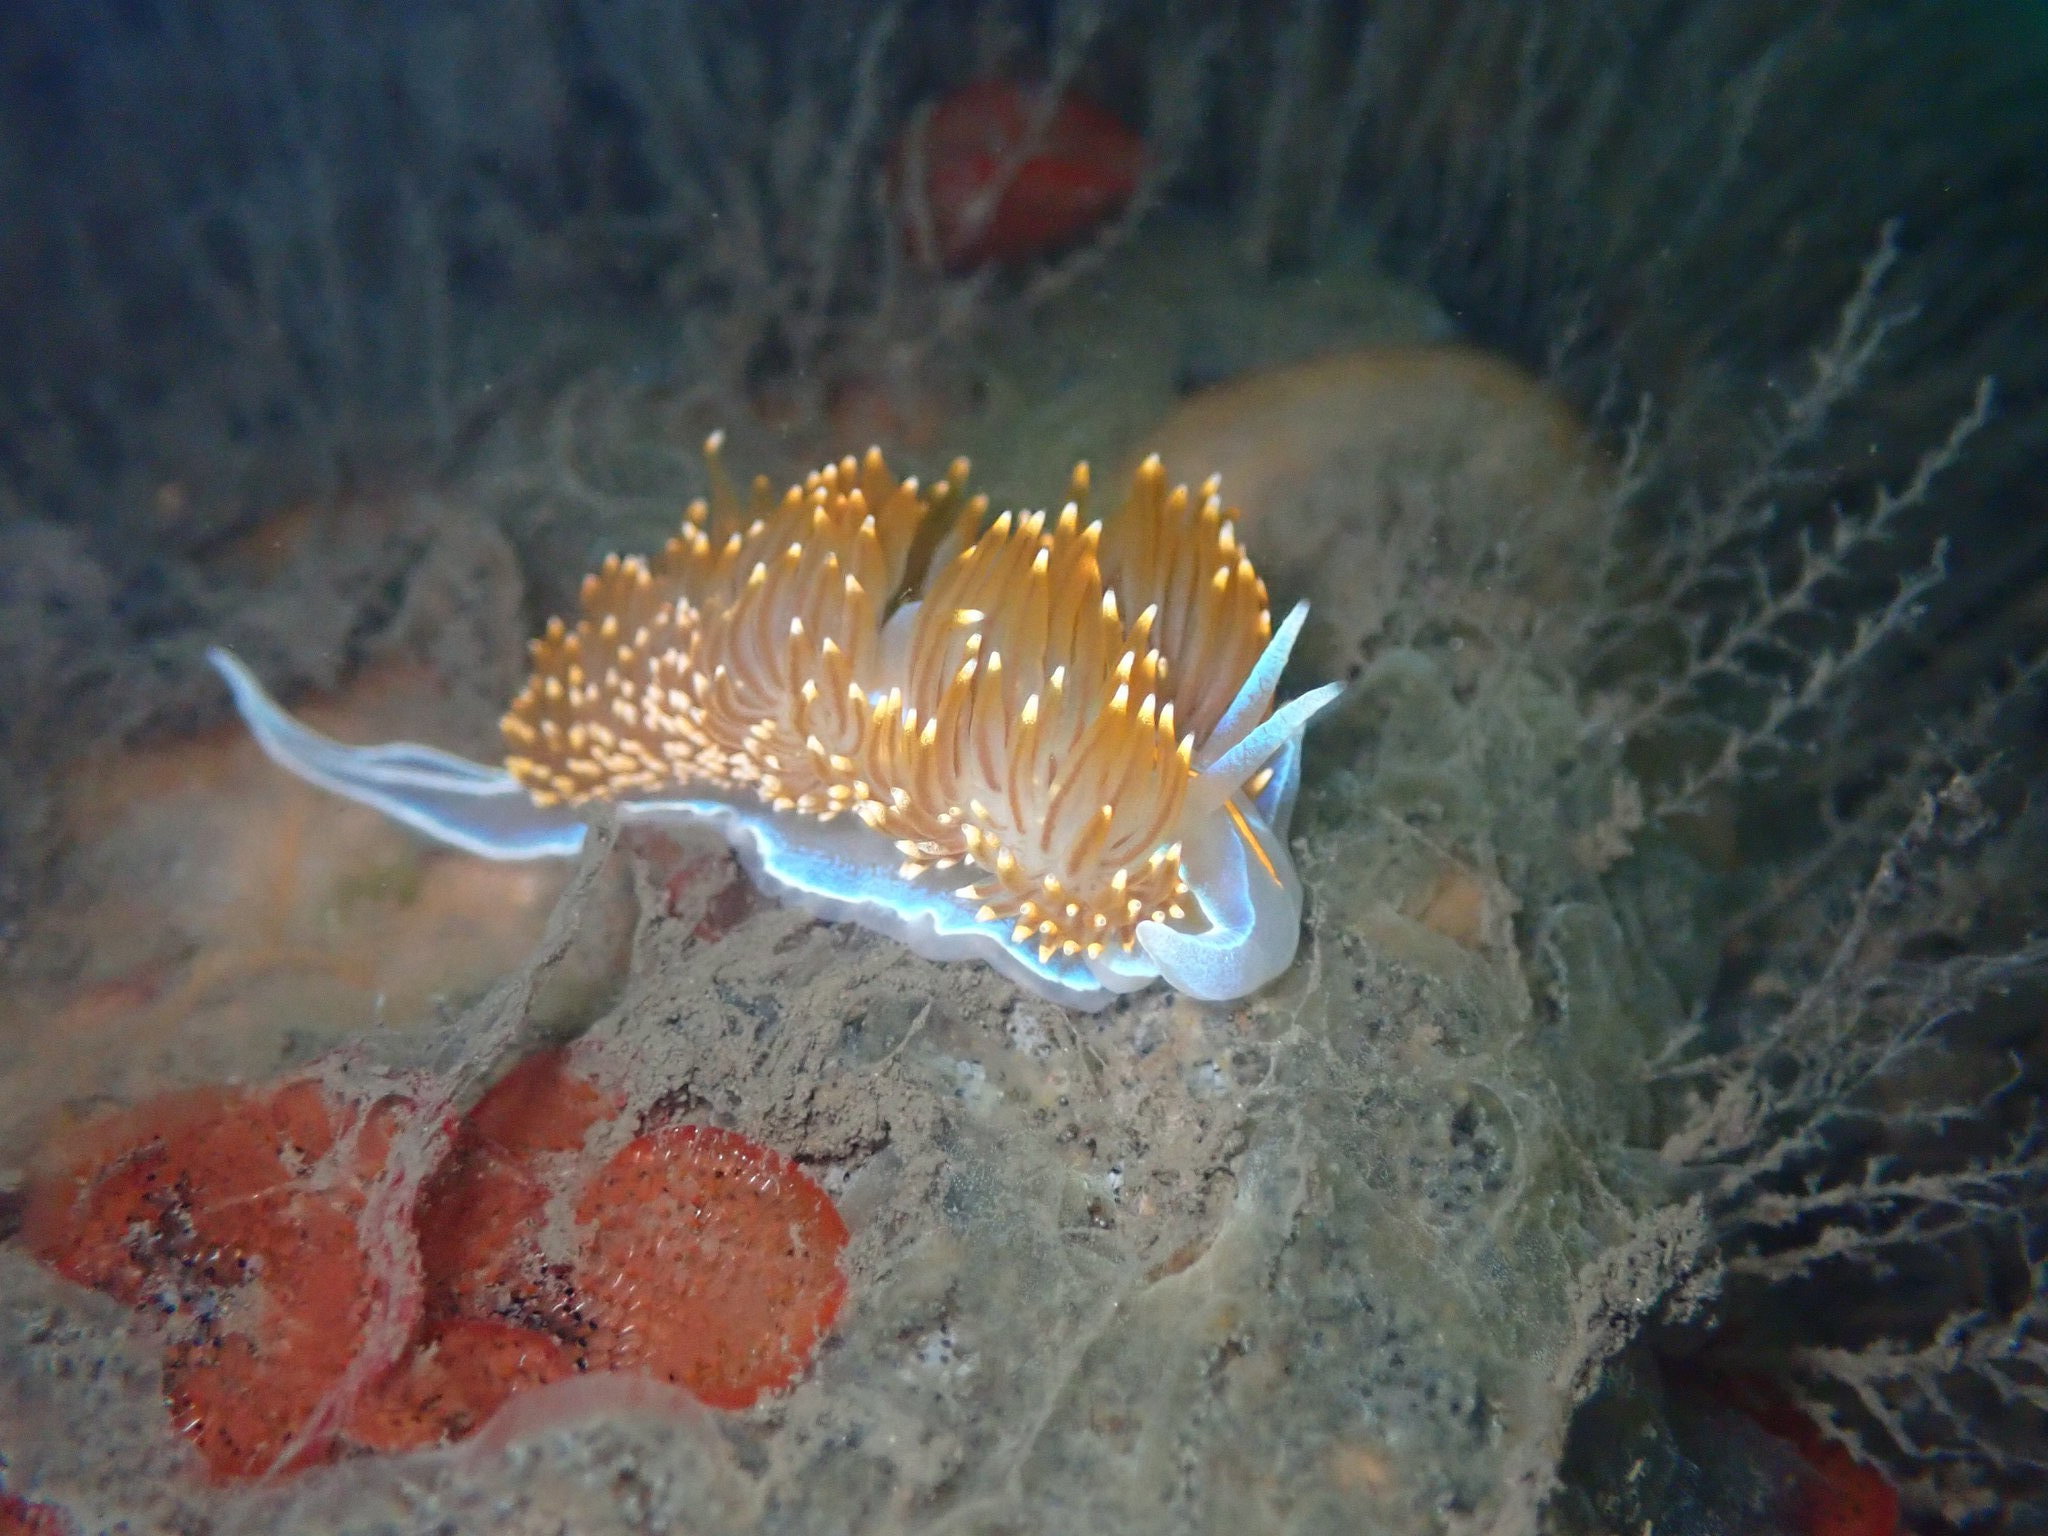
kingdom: Animalia
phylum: Mollusca
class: Gastropoda
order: Nudibranchia
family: Myrrhinidae
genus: Hermissenda
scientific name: Hermissenda opalescens
